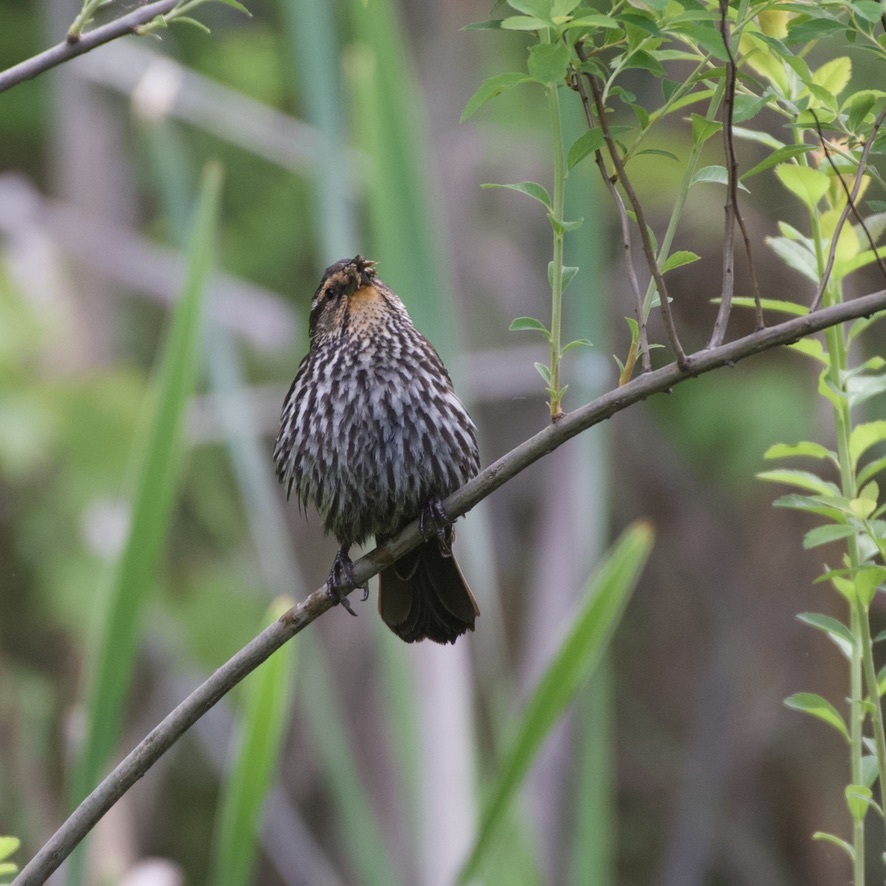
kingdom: Animalia
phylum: Chordata
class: Aves
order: Passeriformes
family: Icteridae
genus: Agelaius
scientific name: Agelaius phoeniceus
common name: Red-winged blackbird
